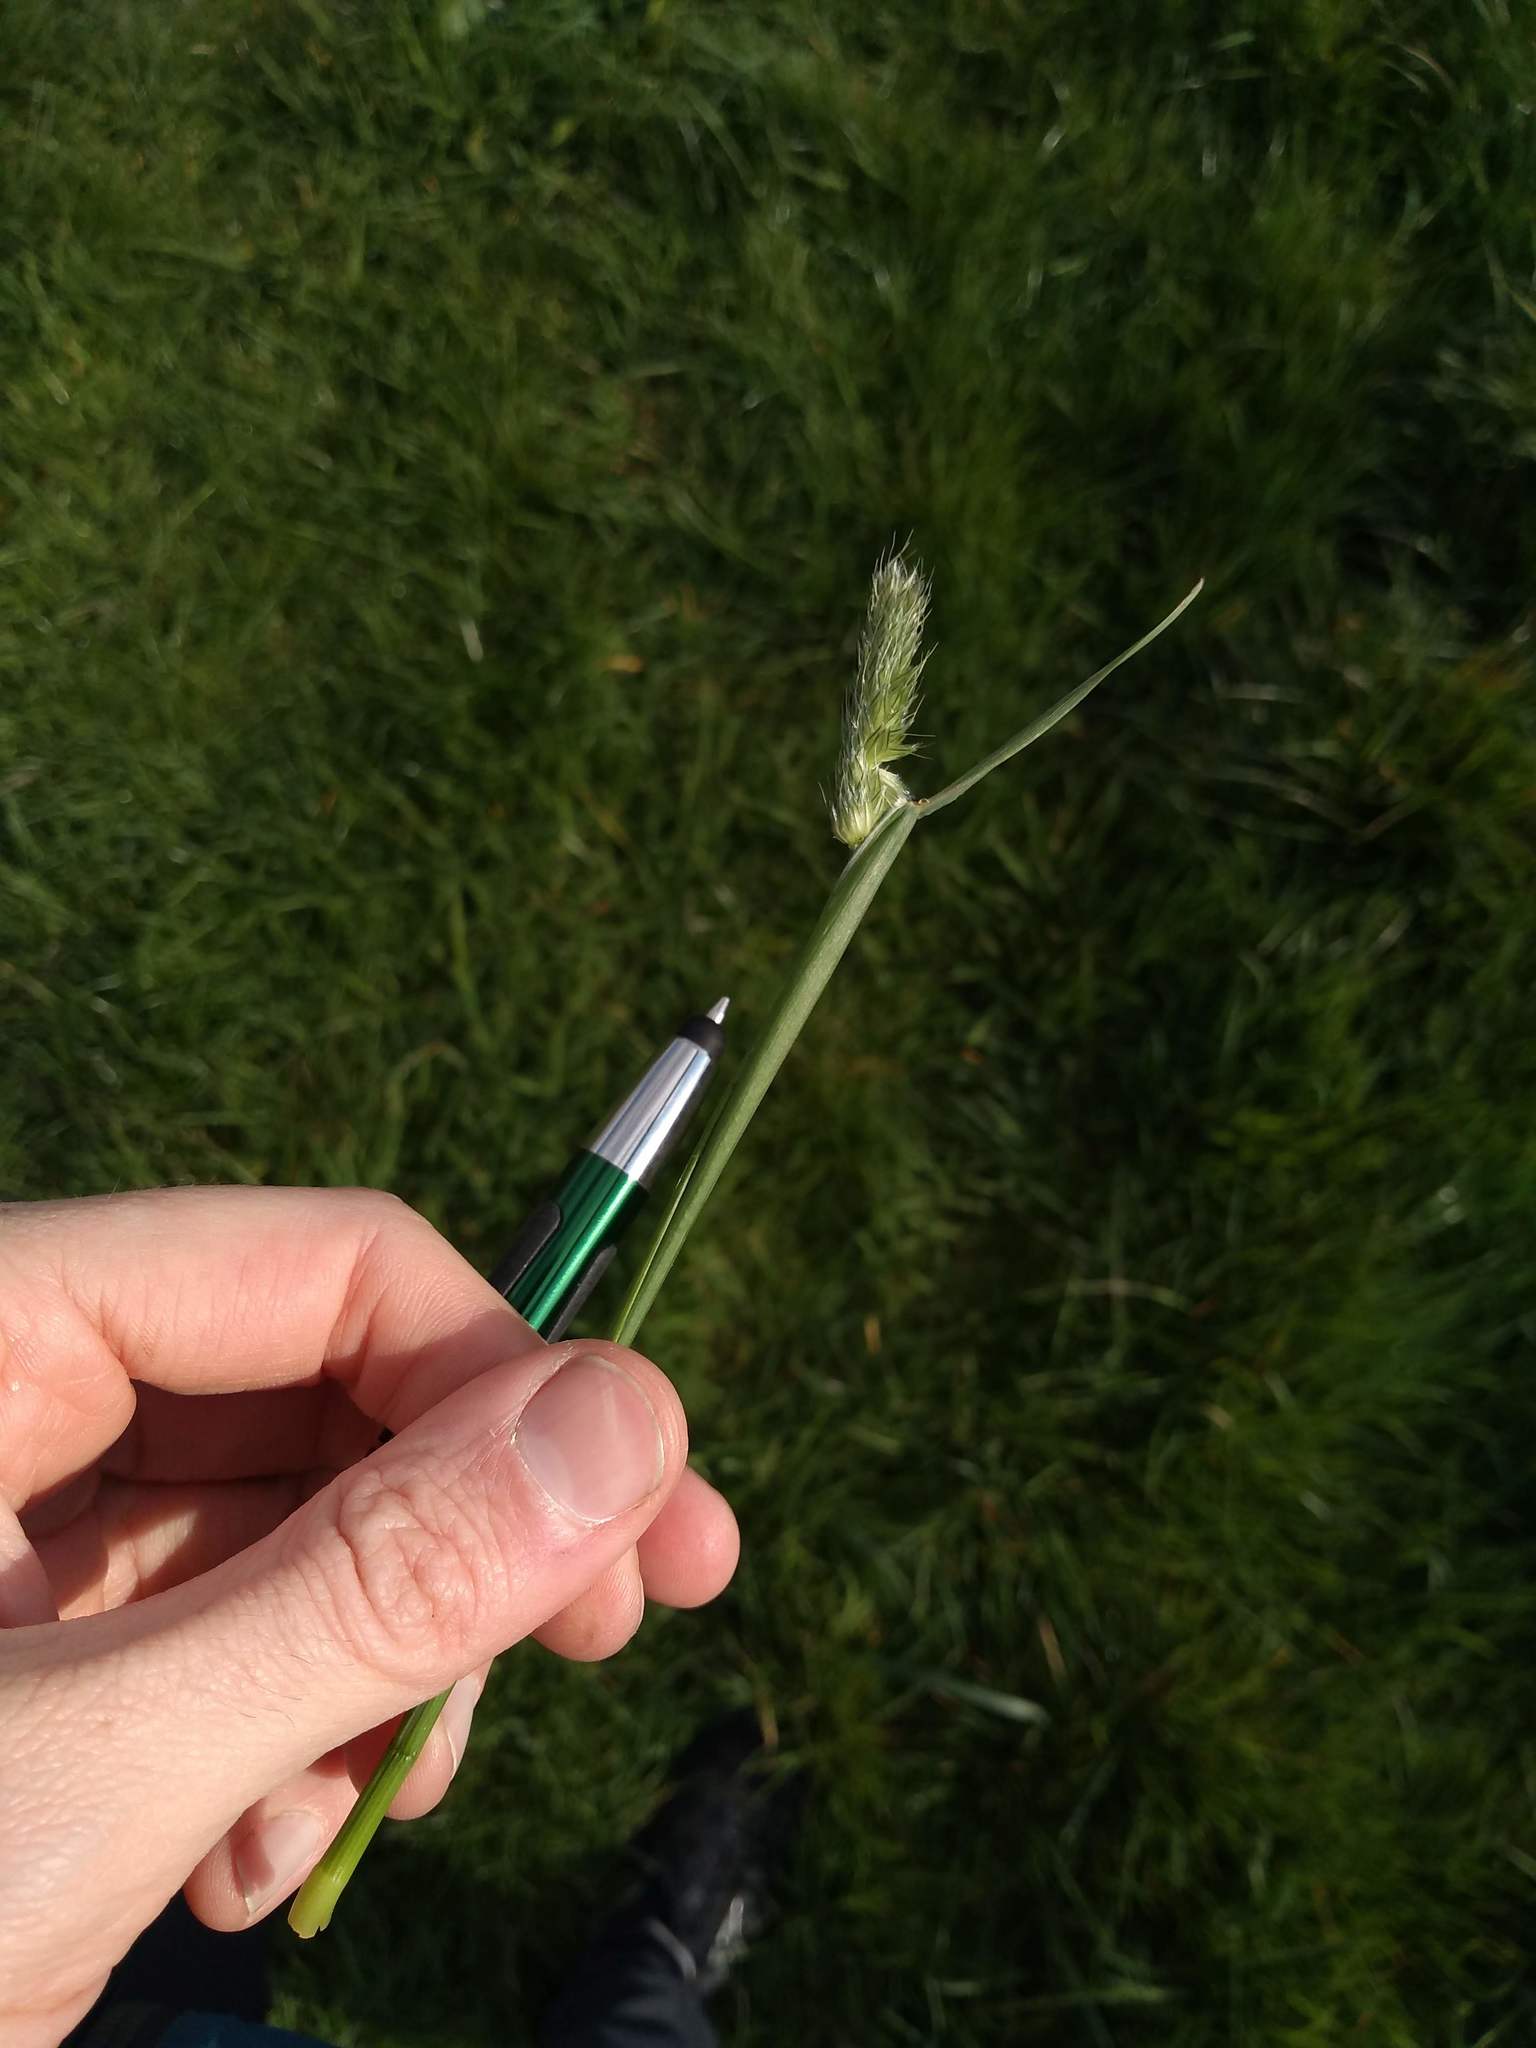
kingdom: Plantae
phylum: Tracheophyta
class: Liliopsida
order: Poales
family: Poaceae
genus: Alopecurus
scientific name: Alopecurus pratensis
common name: Meadow foxtail
